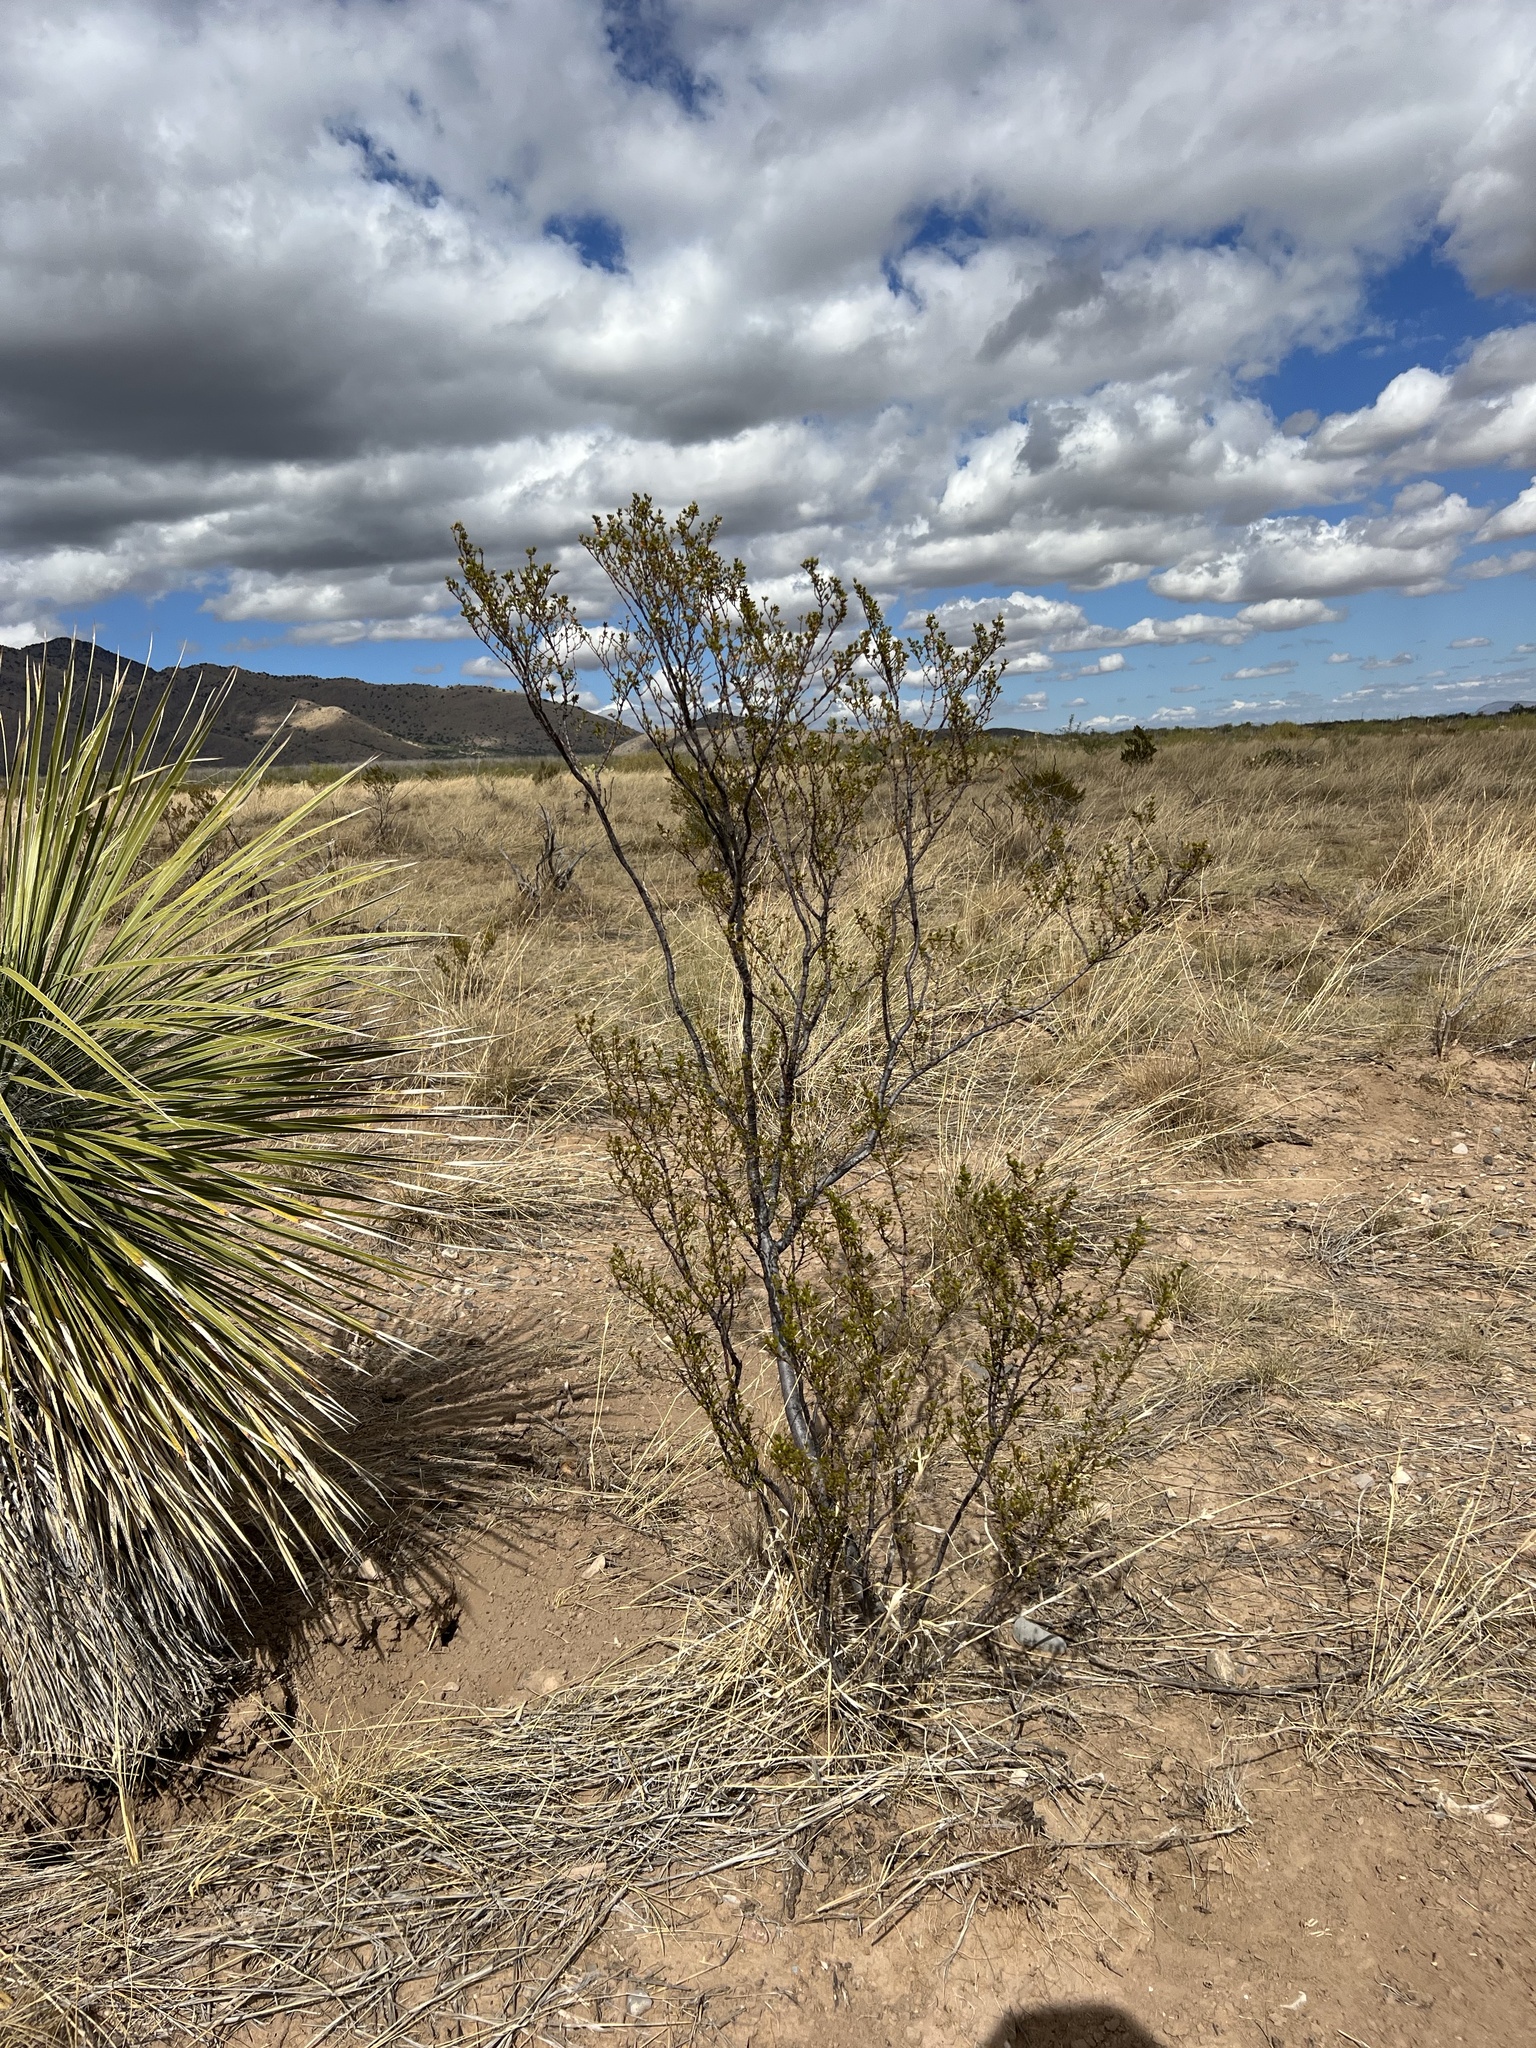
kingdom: Plantae
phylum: Tracheophyta
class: Magnoliopsida
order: Zygophyllales
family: Zygophyllaceae
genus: Larrea
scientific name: Larrea tridentata
